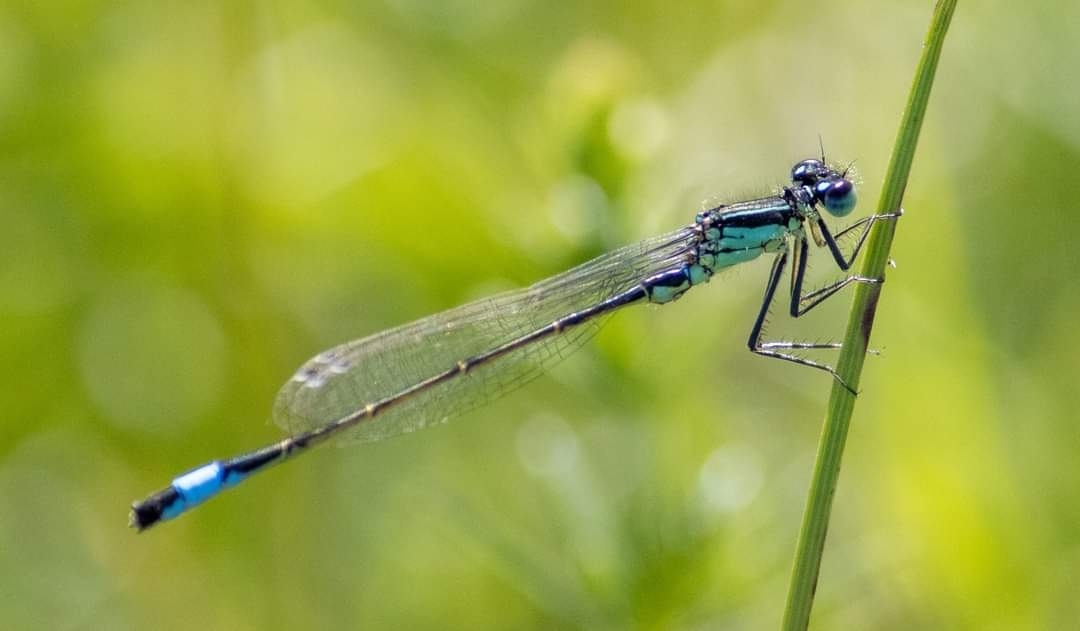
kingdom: Animalia
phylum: Arthropoda
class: Insecta
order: Odonata
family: Coenagrionidae
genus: Ischnura
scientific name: Ischnura elegans
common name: Blue-tailed damselfly
